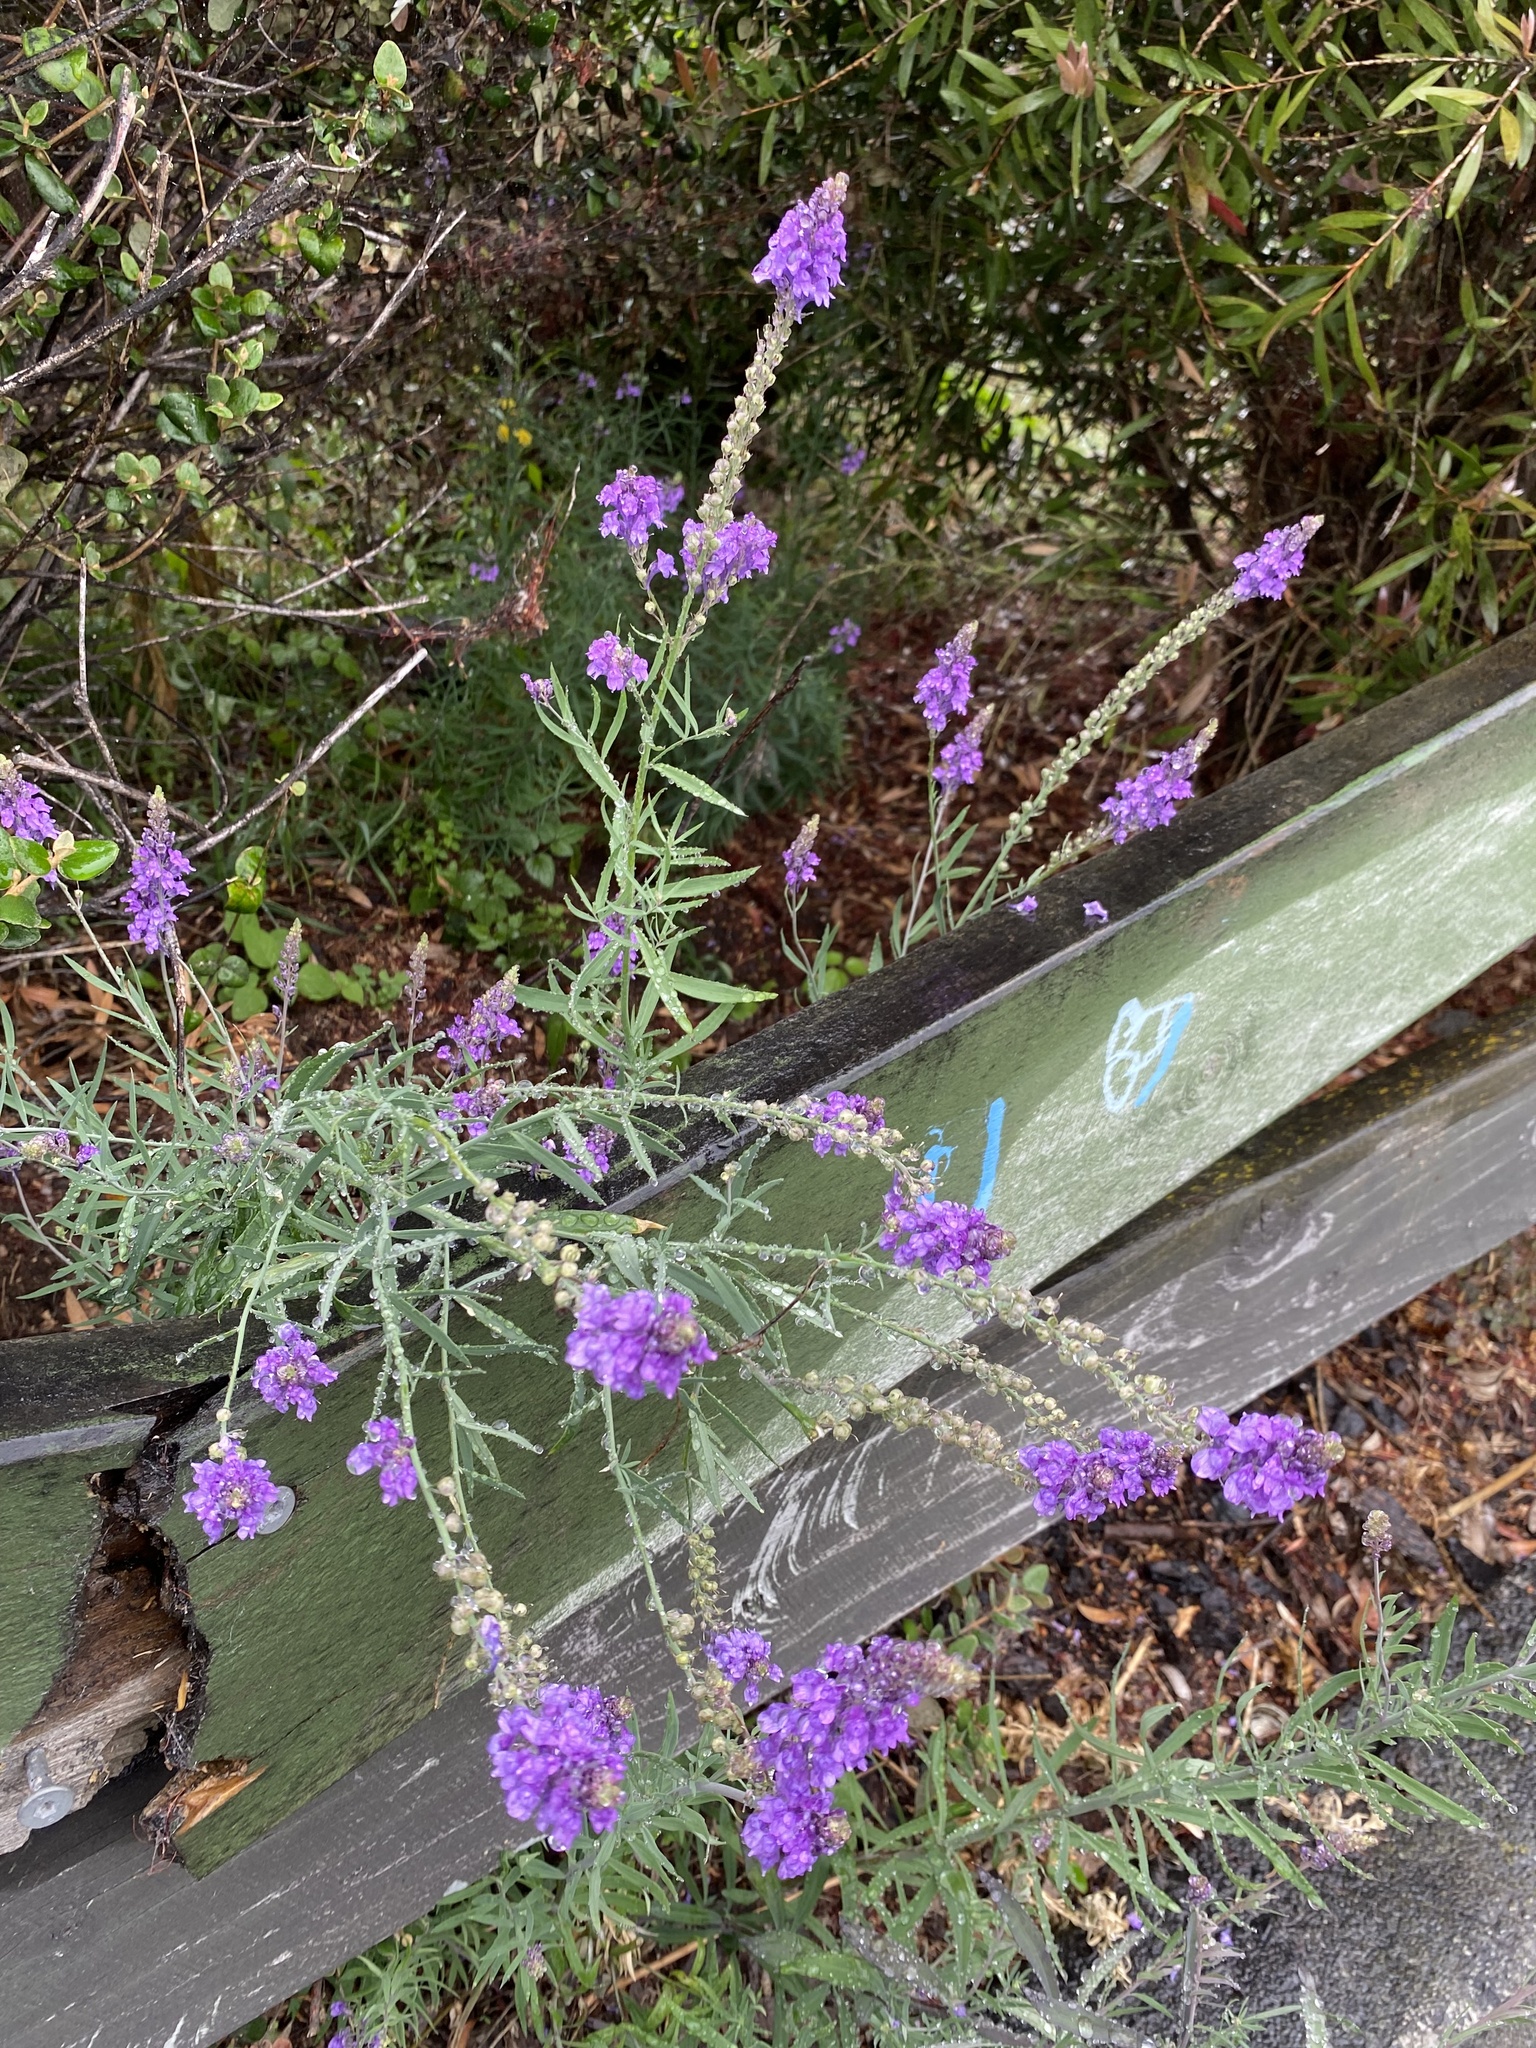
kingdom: Plantae
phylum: Tracheophyta
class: Magnoliopsida
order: Lamiales
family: Plantaginaceae
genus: Linaria
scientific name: Linaria purpurea
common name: Purple toadflax
